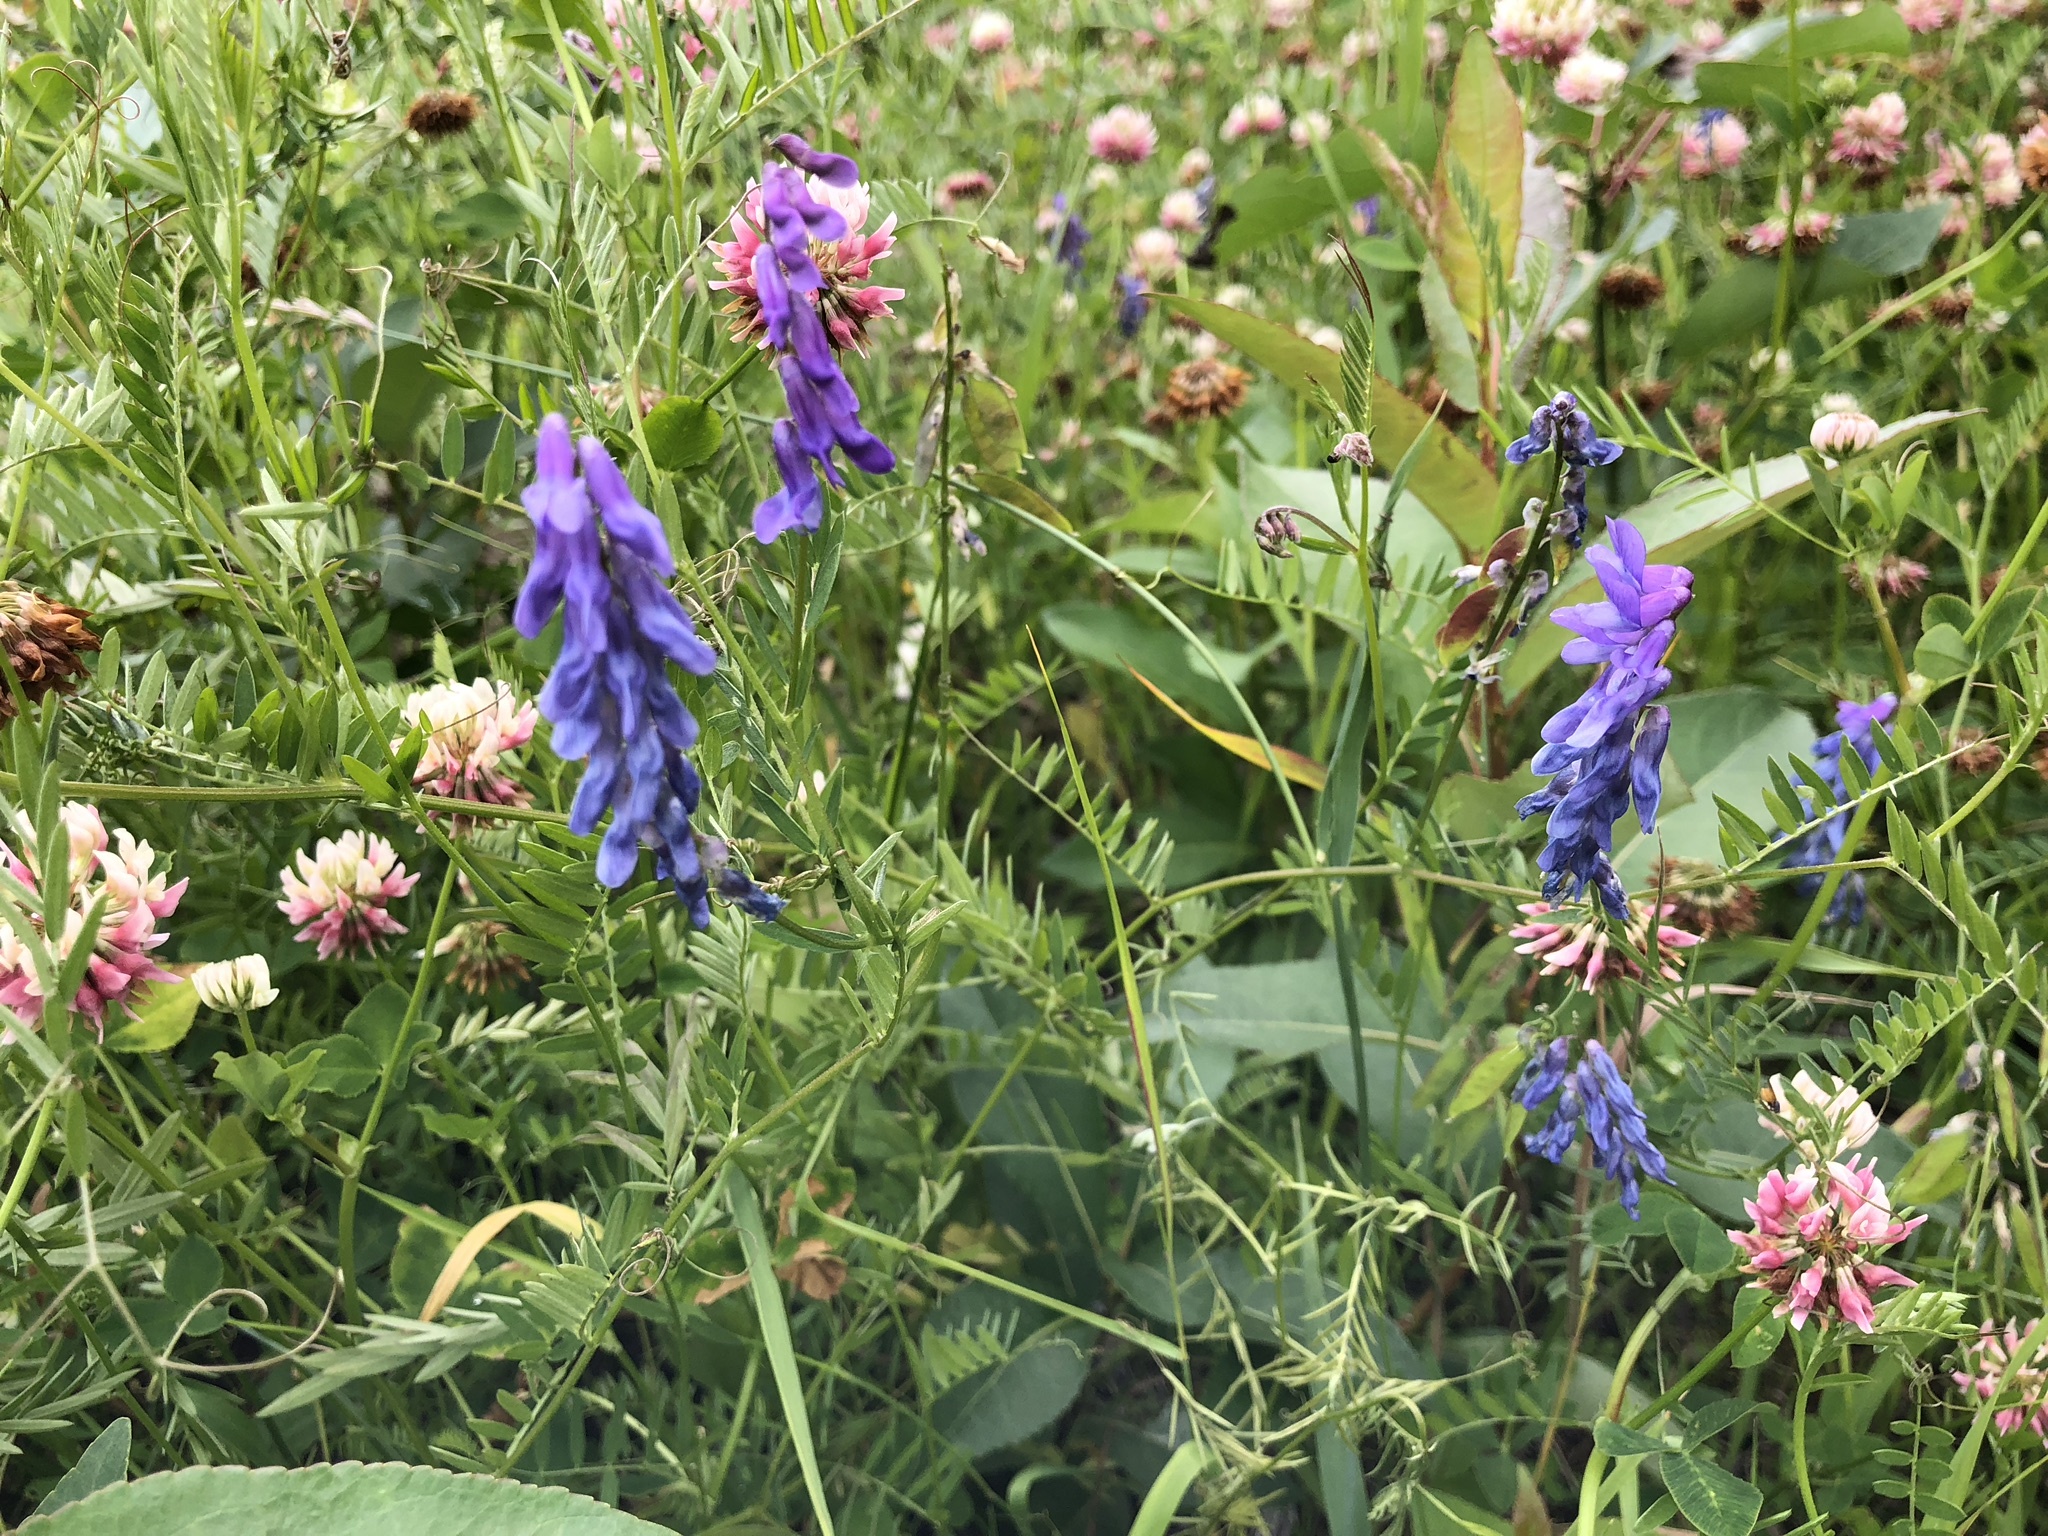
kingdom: Plantae
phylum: Tracheophyta
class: Magnoliopsida
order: Fabales
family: Fabaceae
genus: Vicia
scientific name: Vicia cracca
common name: Bird vetch
